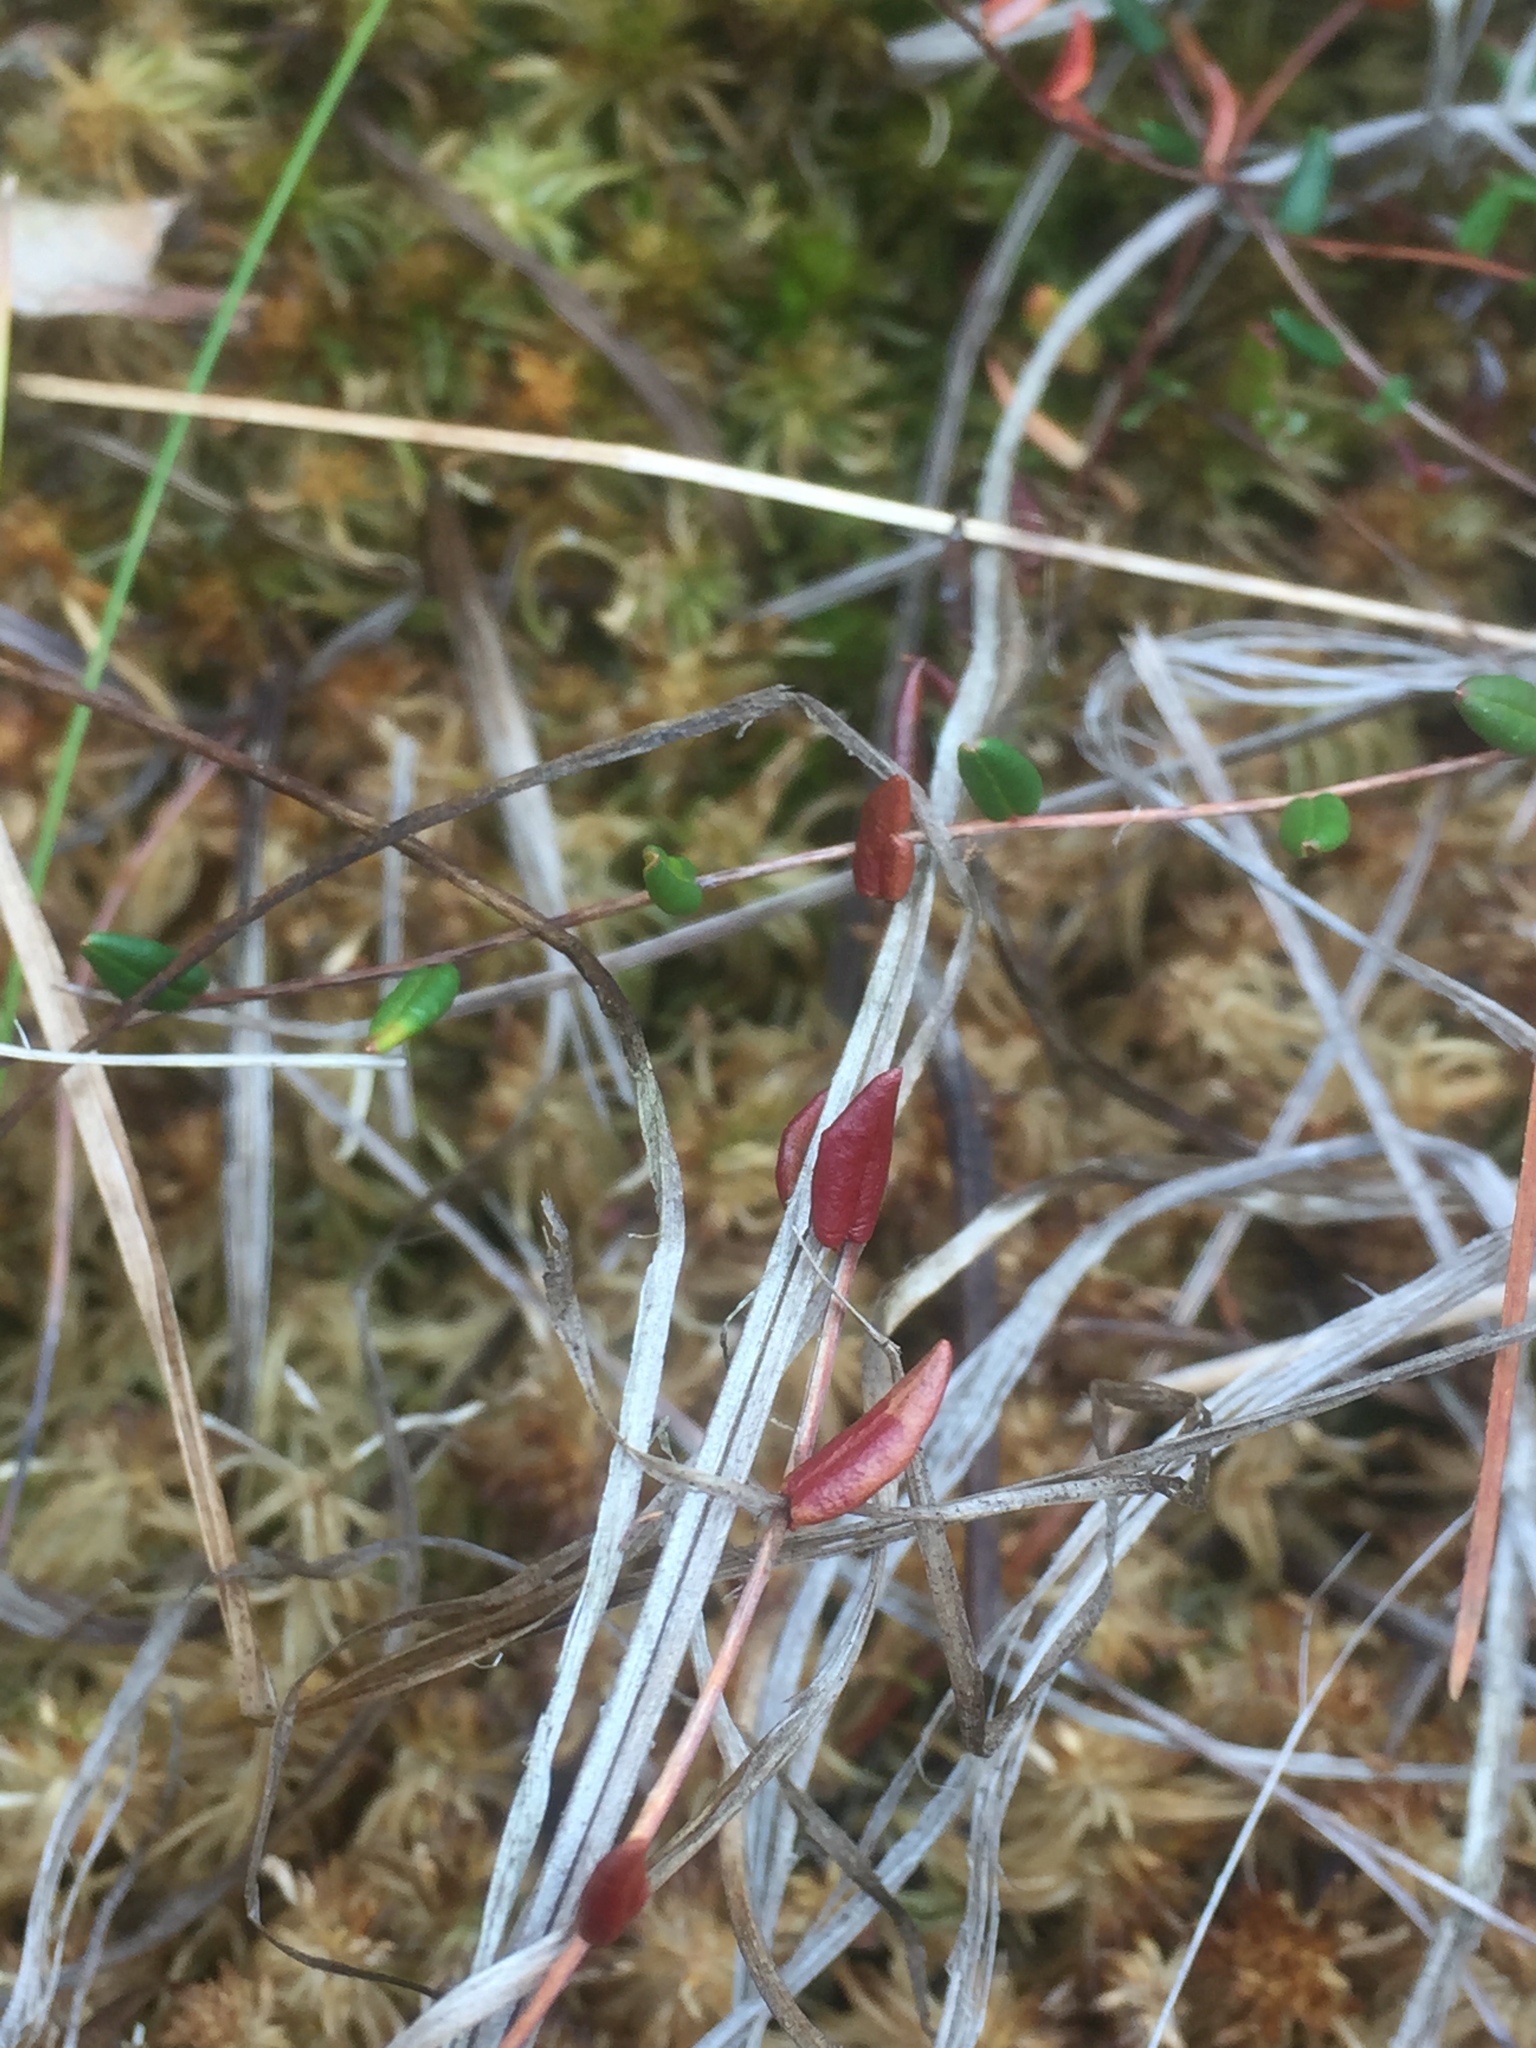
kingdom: Plantae
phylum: Tracheophyta
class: Magnoliopsida
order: Ericales
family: Ericaceae
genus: Vaccinium
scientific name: Vaccinium oxycoccos
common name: Cranberry
